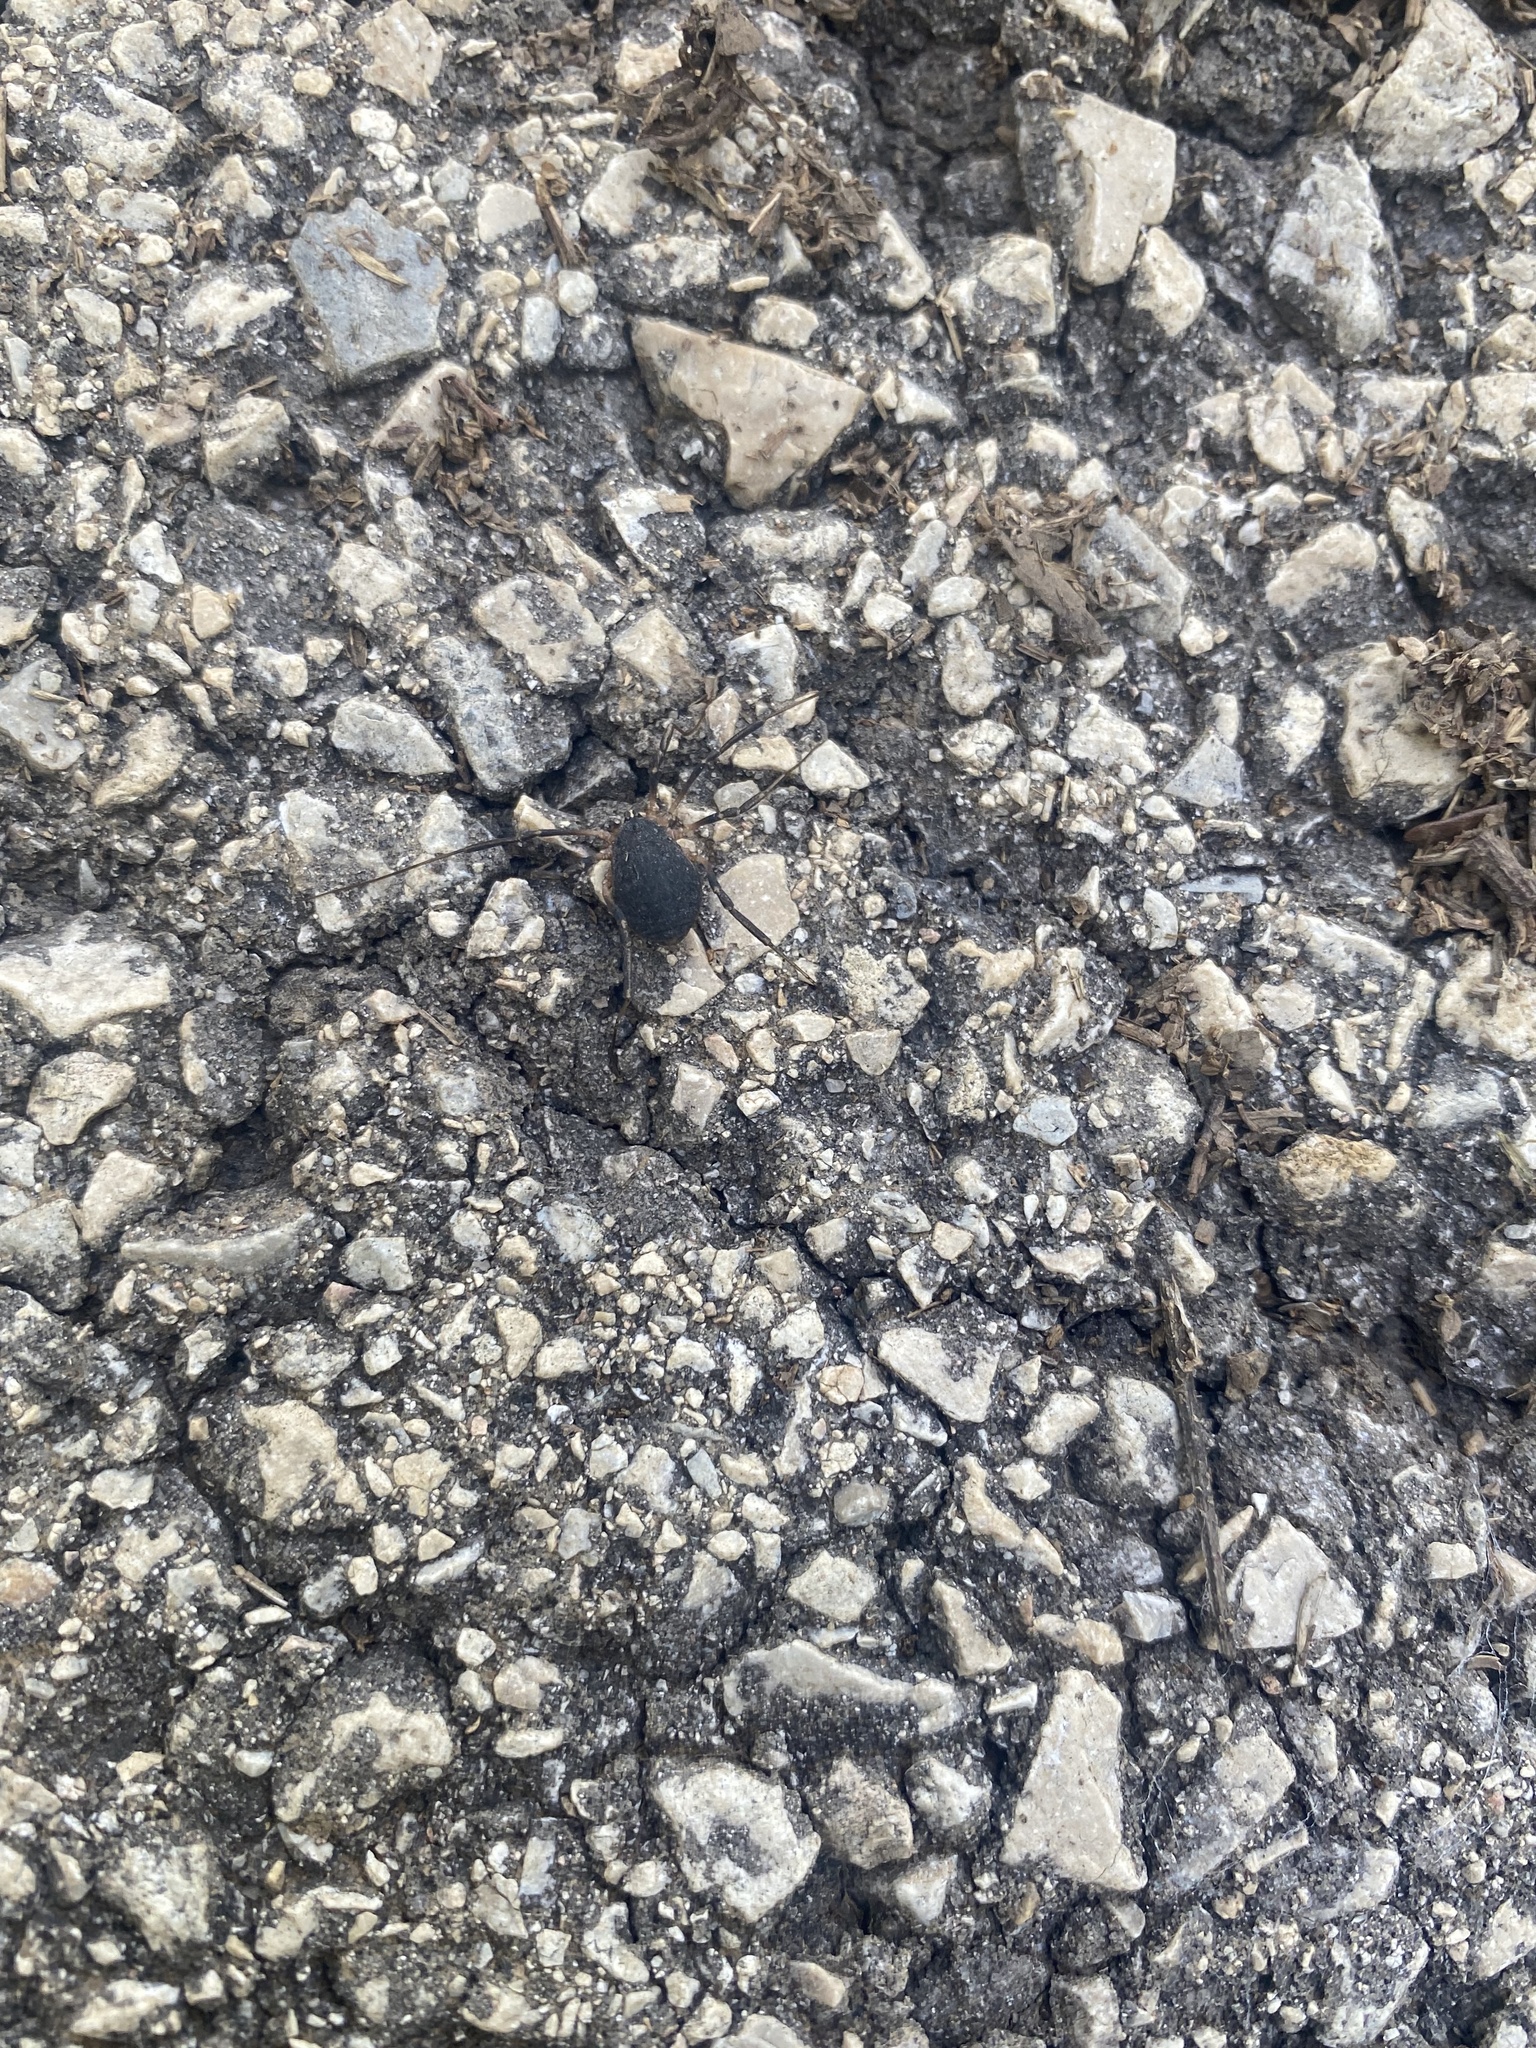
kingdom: Animalia
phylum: Arthropoda
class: Arachnida
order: Opiliones
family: Sclerosomatidae
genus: Eumesosoma
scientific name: Eumesosoma roeweri
